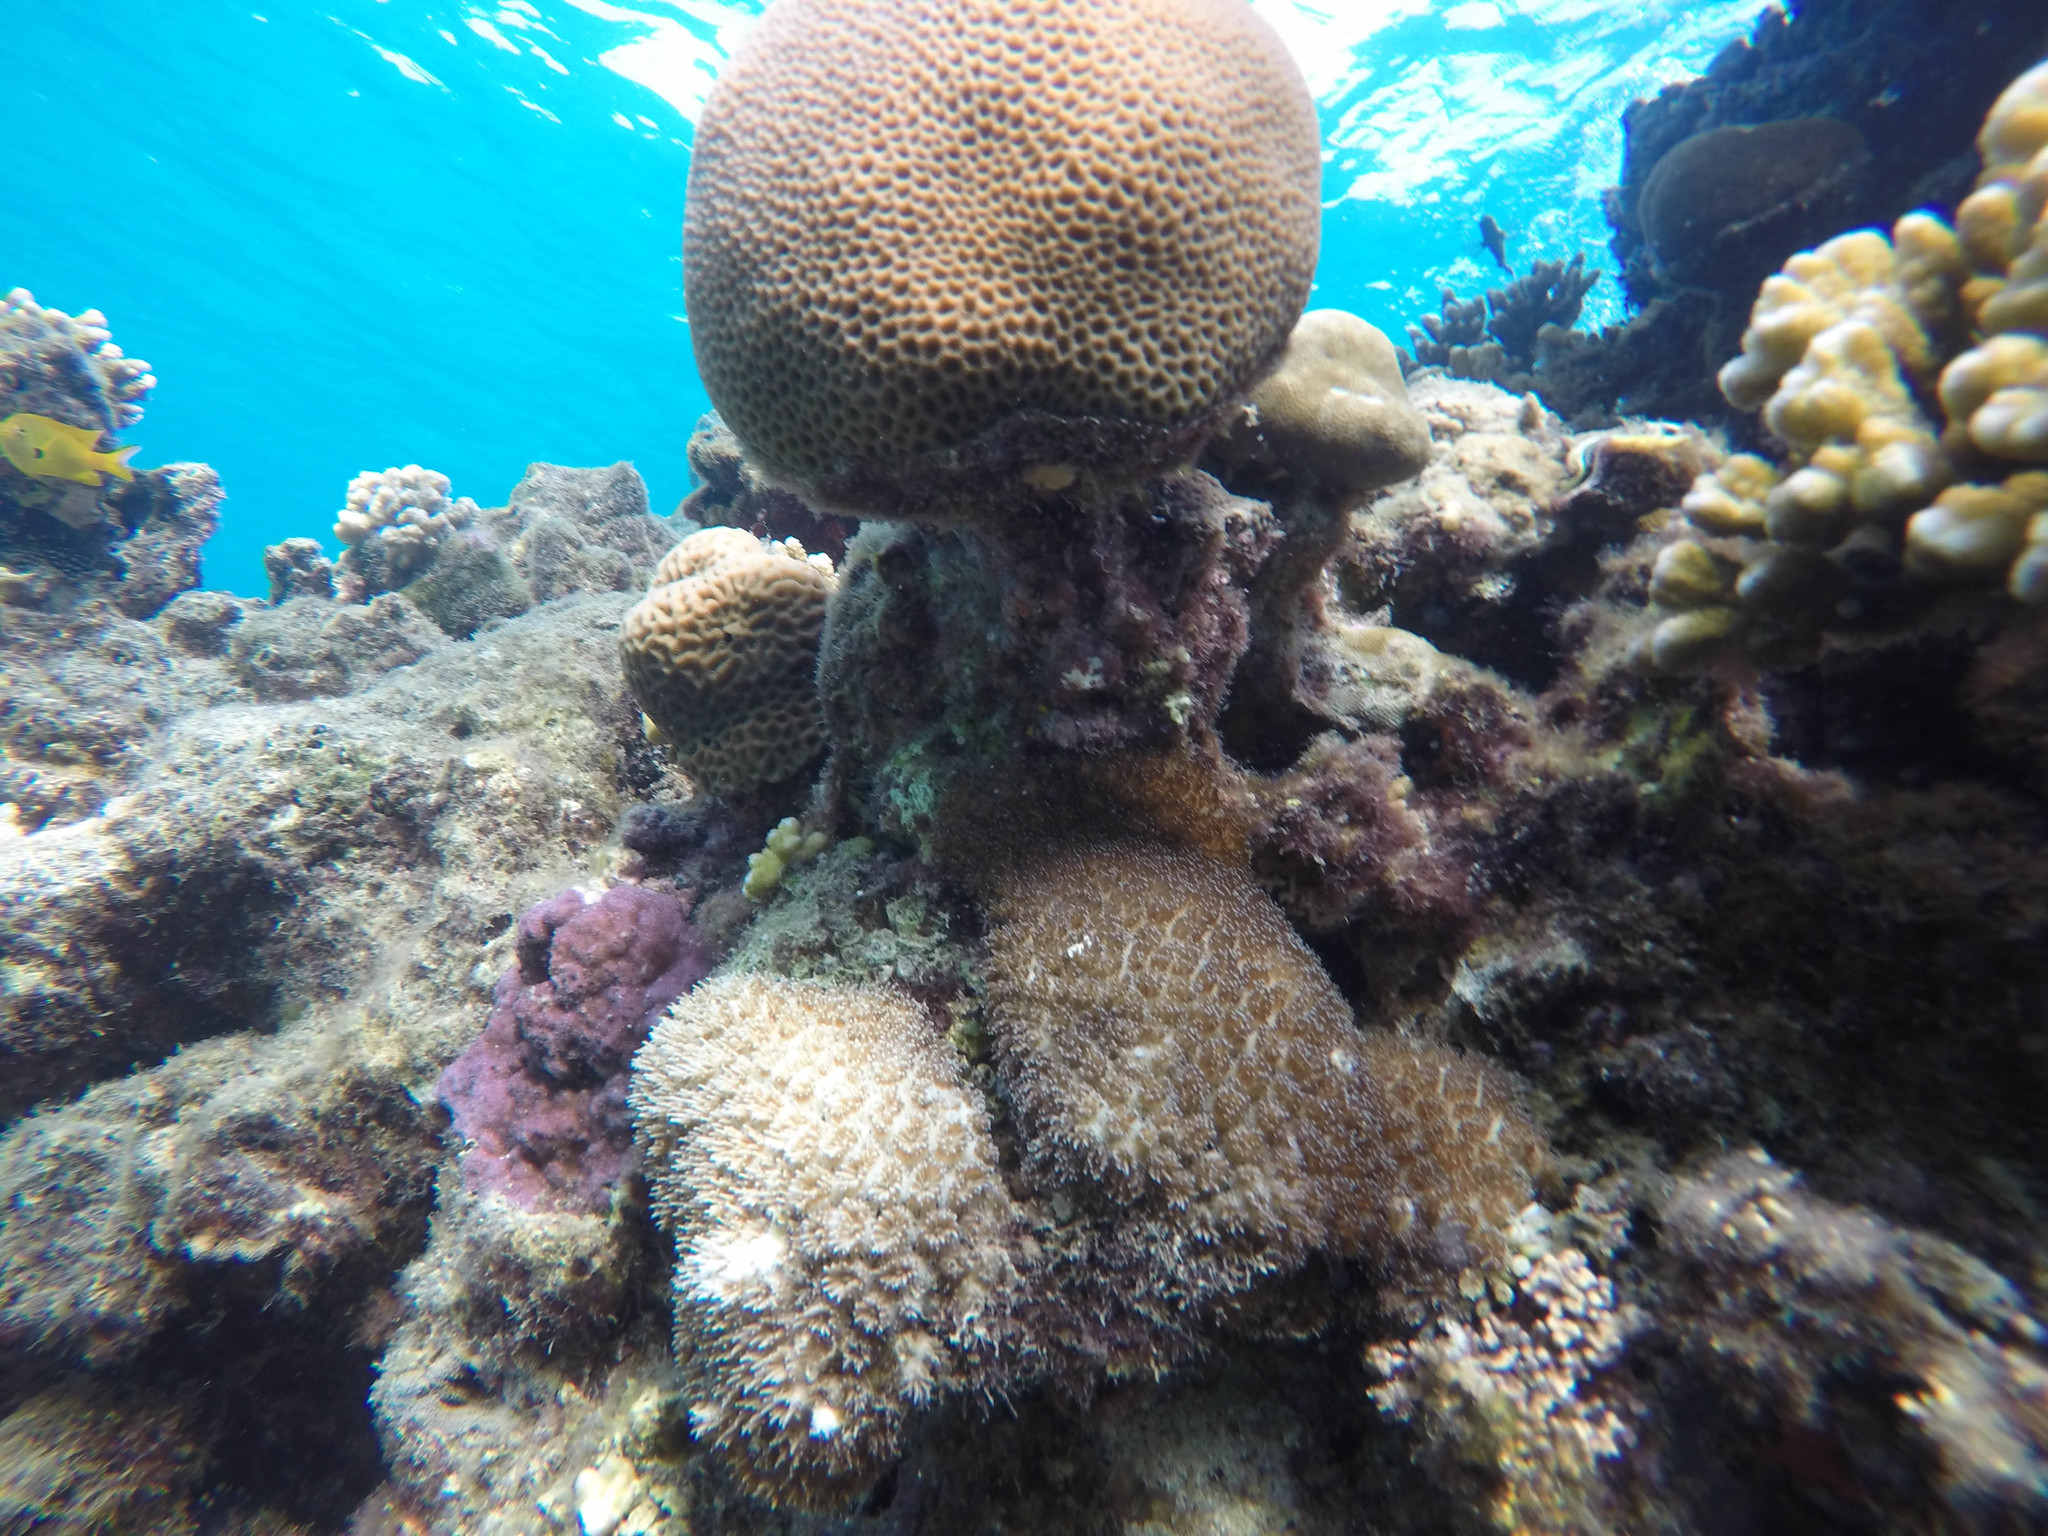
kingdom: Animalia
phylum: Chordata
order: Perciformes
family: Pomacentridae
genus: Pomacentrus
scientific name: Pomacentrus sulfureus
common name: Sulfur damsel
